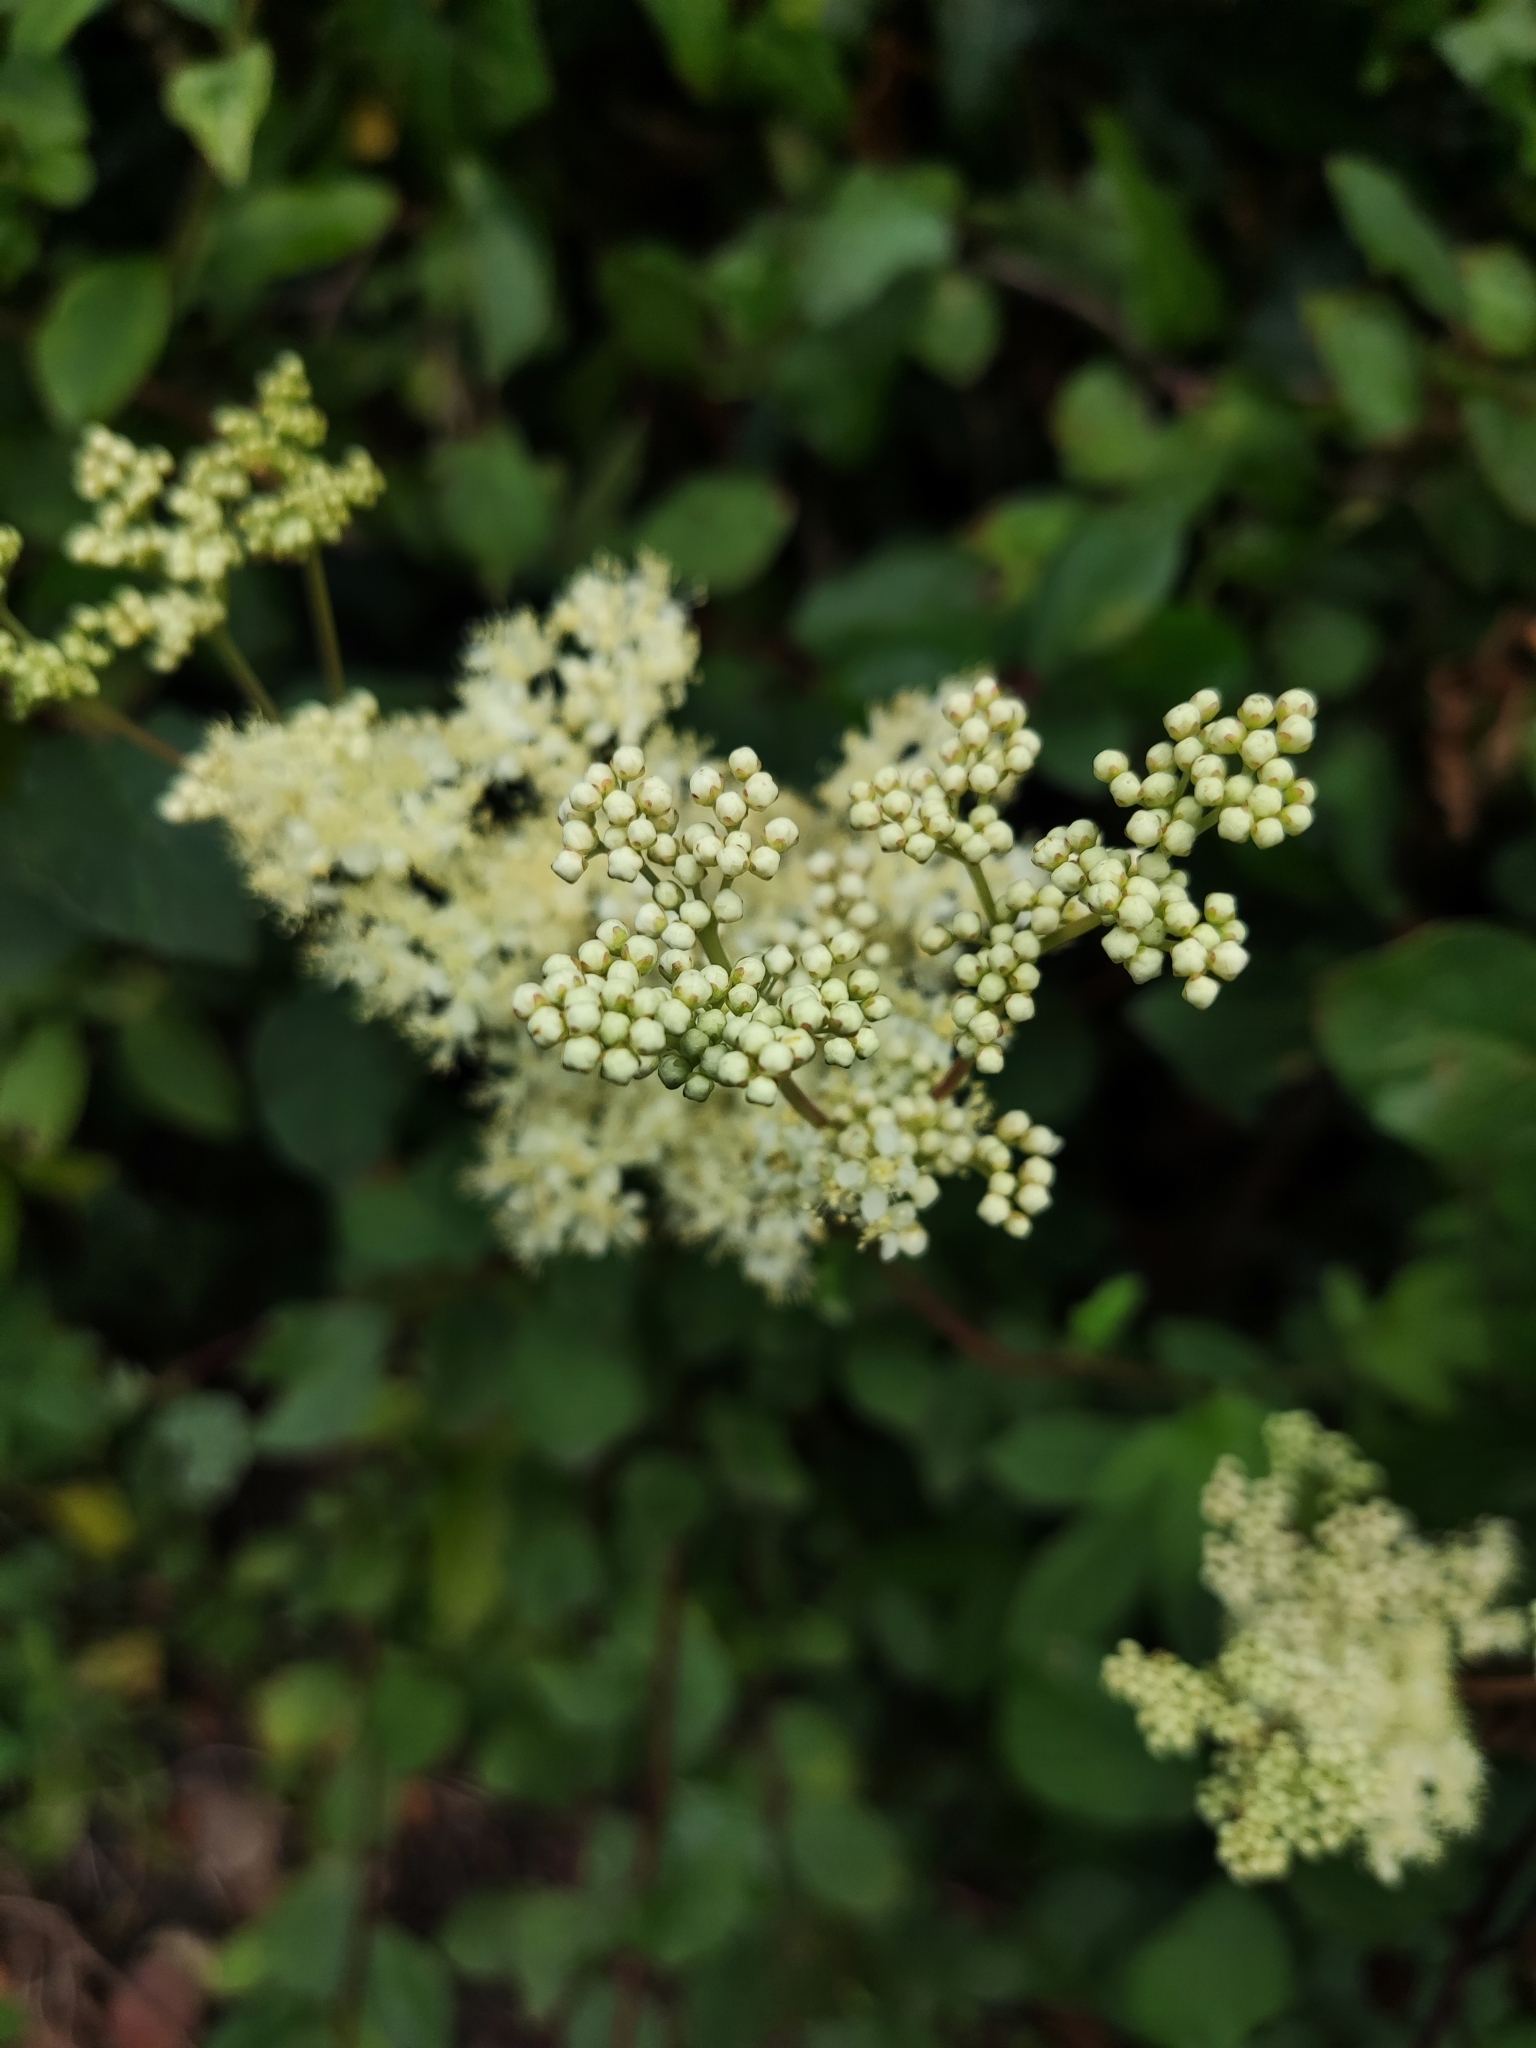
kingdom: Plantae
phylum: Tracheophyta
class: Magnoliopsida
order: Rosales
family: Rosaceae
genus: Filipendula
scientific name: Filipendula ulmaria
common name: Meadowsweet
